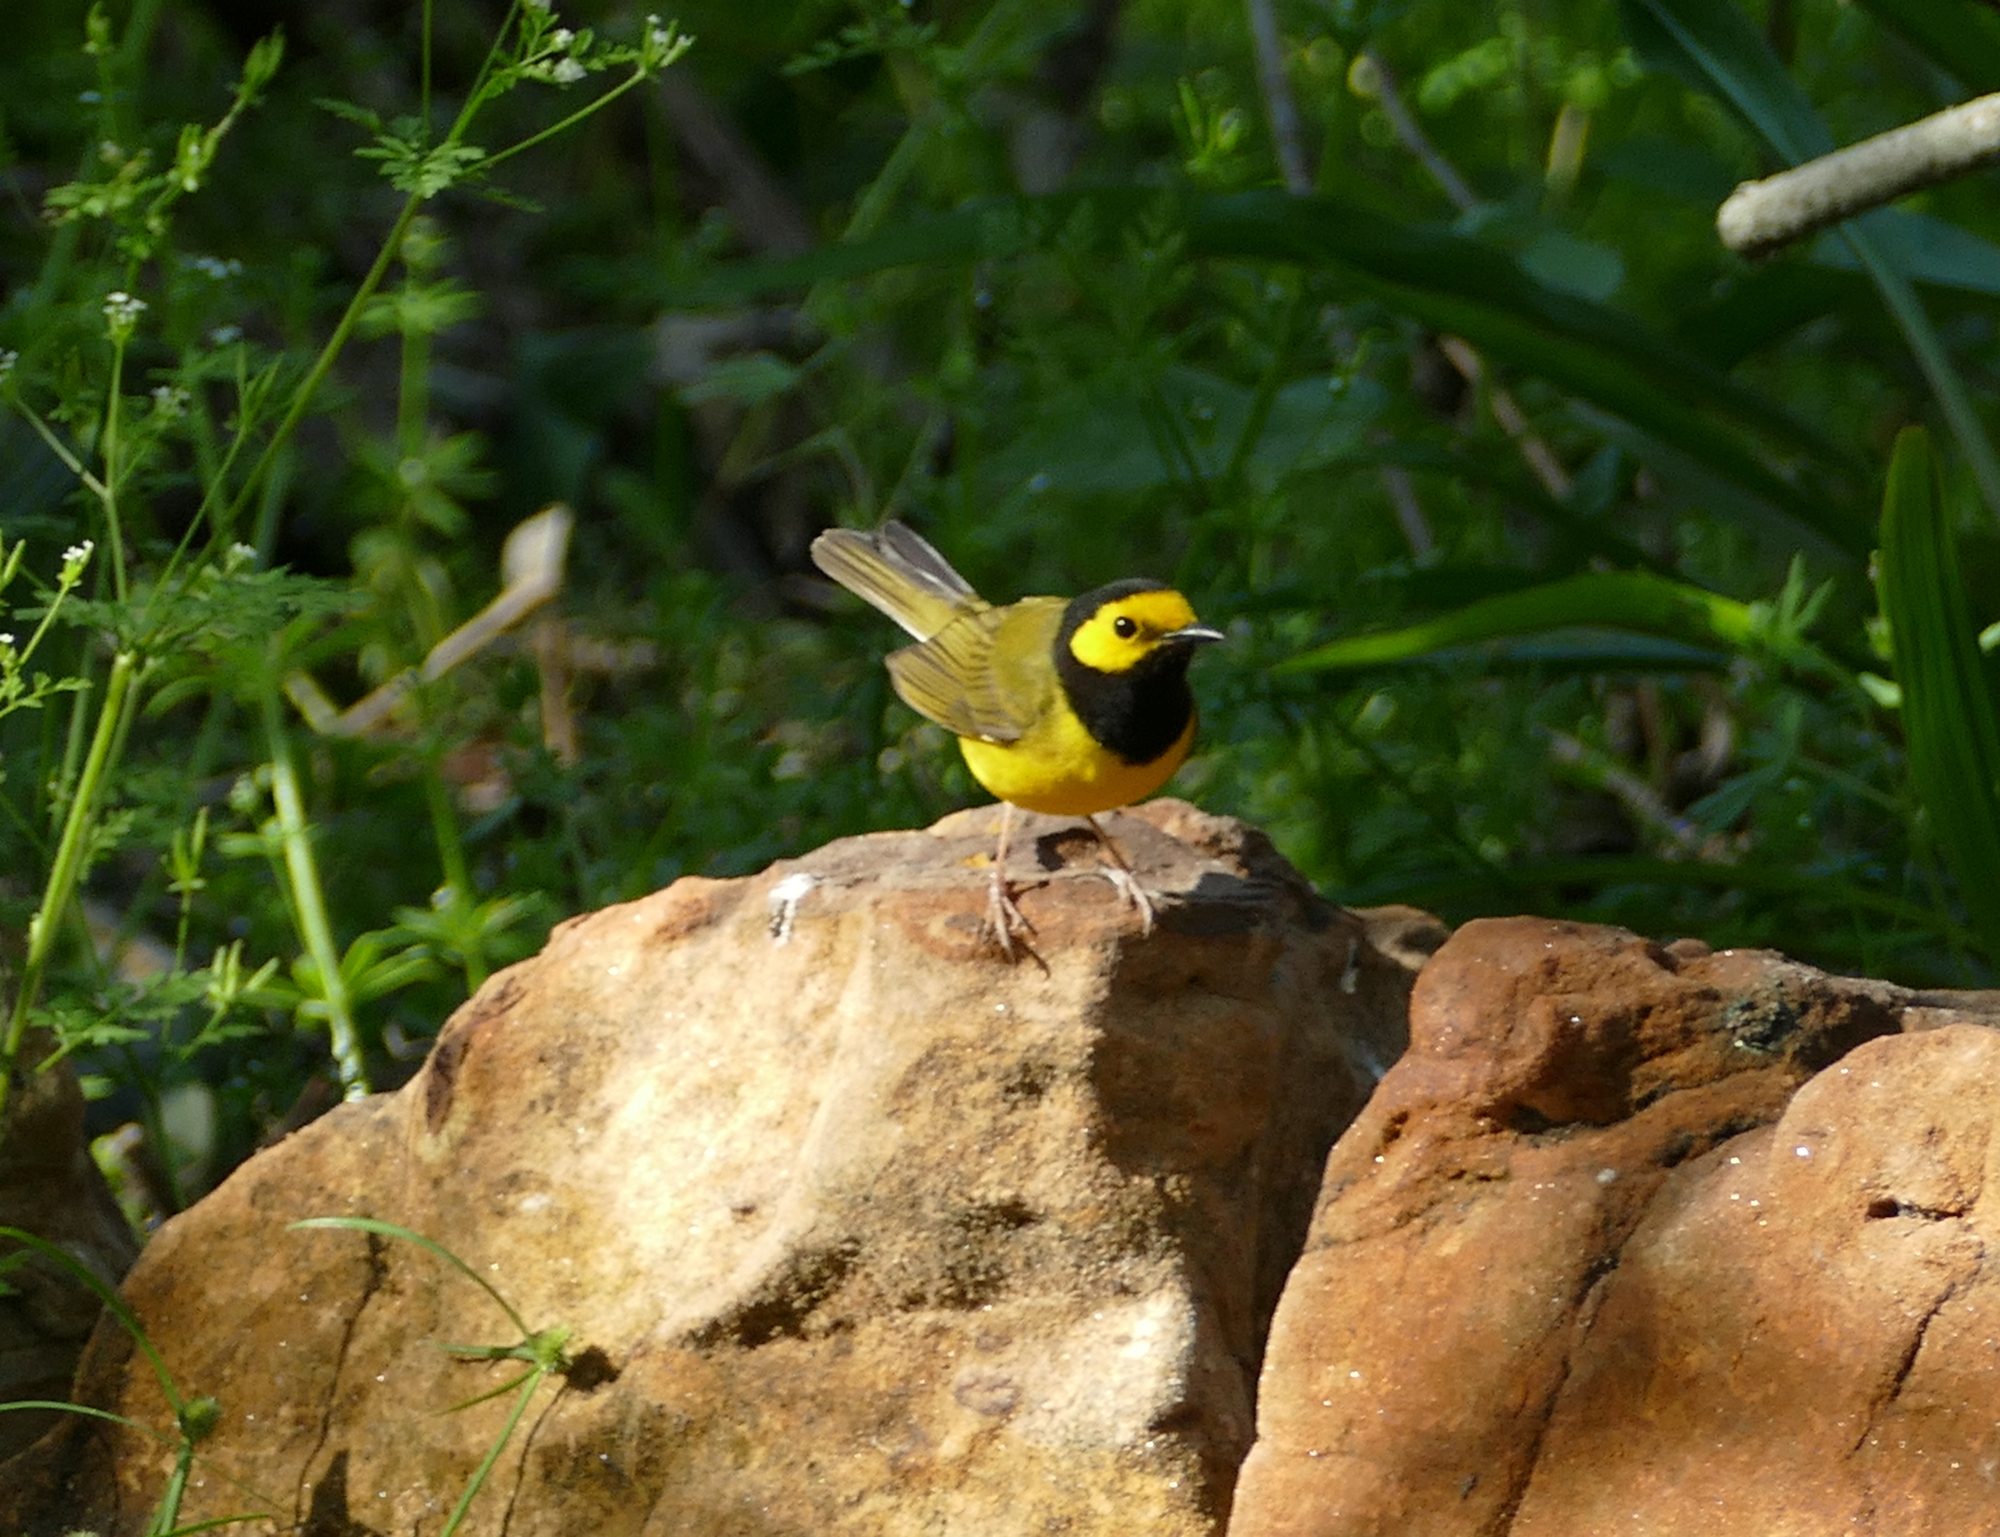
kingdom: Animalia
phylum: Chordata
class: Aves
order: Passeriformes
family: Parulidae
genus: Setophaga
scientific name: Setophaga citrina
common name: Hooded warbler
